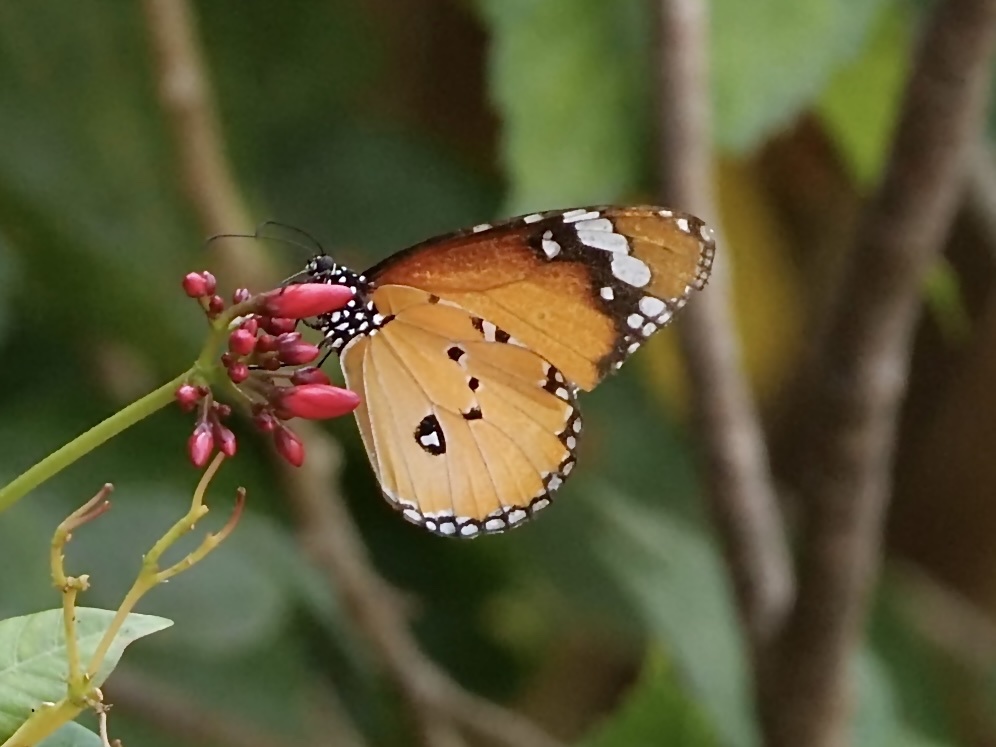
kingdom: Animalia
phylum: Arthropoda
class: Insecta
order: Lepidoptera
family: Nymphalidae
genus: Danaus
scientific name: Danaus chrysippus
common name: Plain tiger
